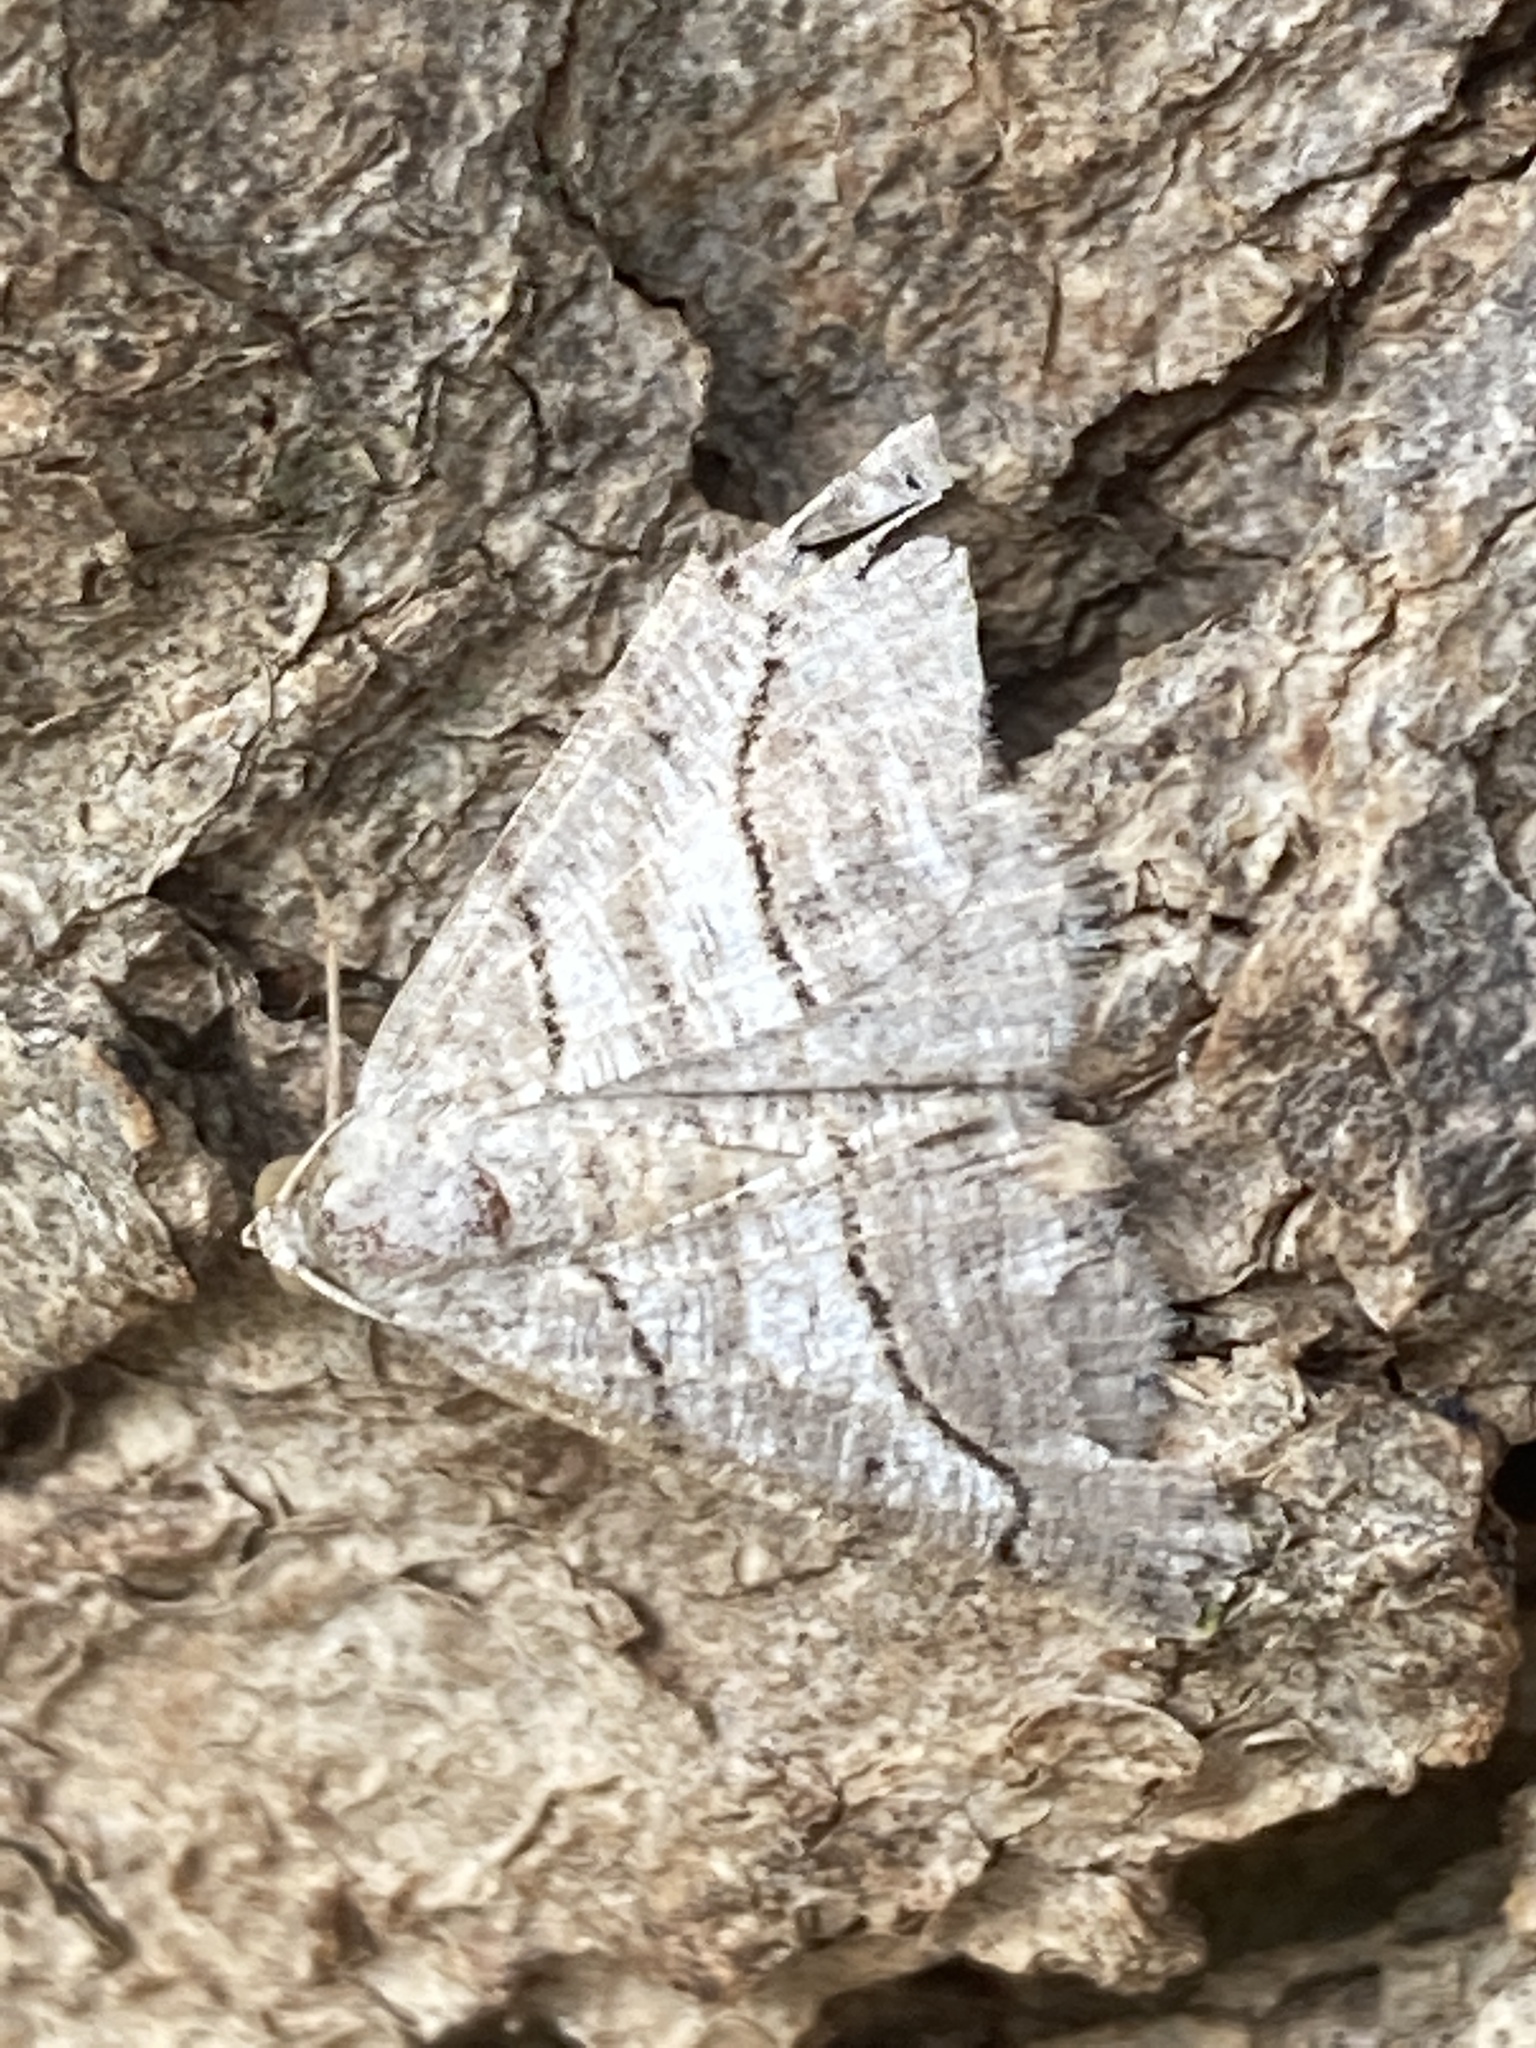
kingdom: Animalia
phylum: Arthropoda
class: Insecta
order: Lepidoptera
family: Geometridae
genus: Digrammia
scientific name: Digrammia continuata
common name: Curve-lined angle
